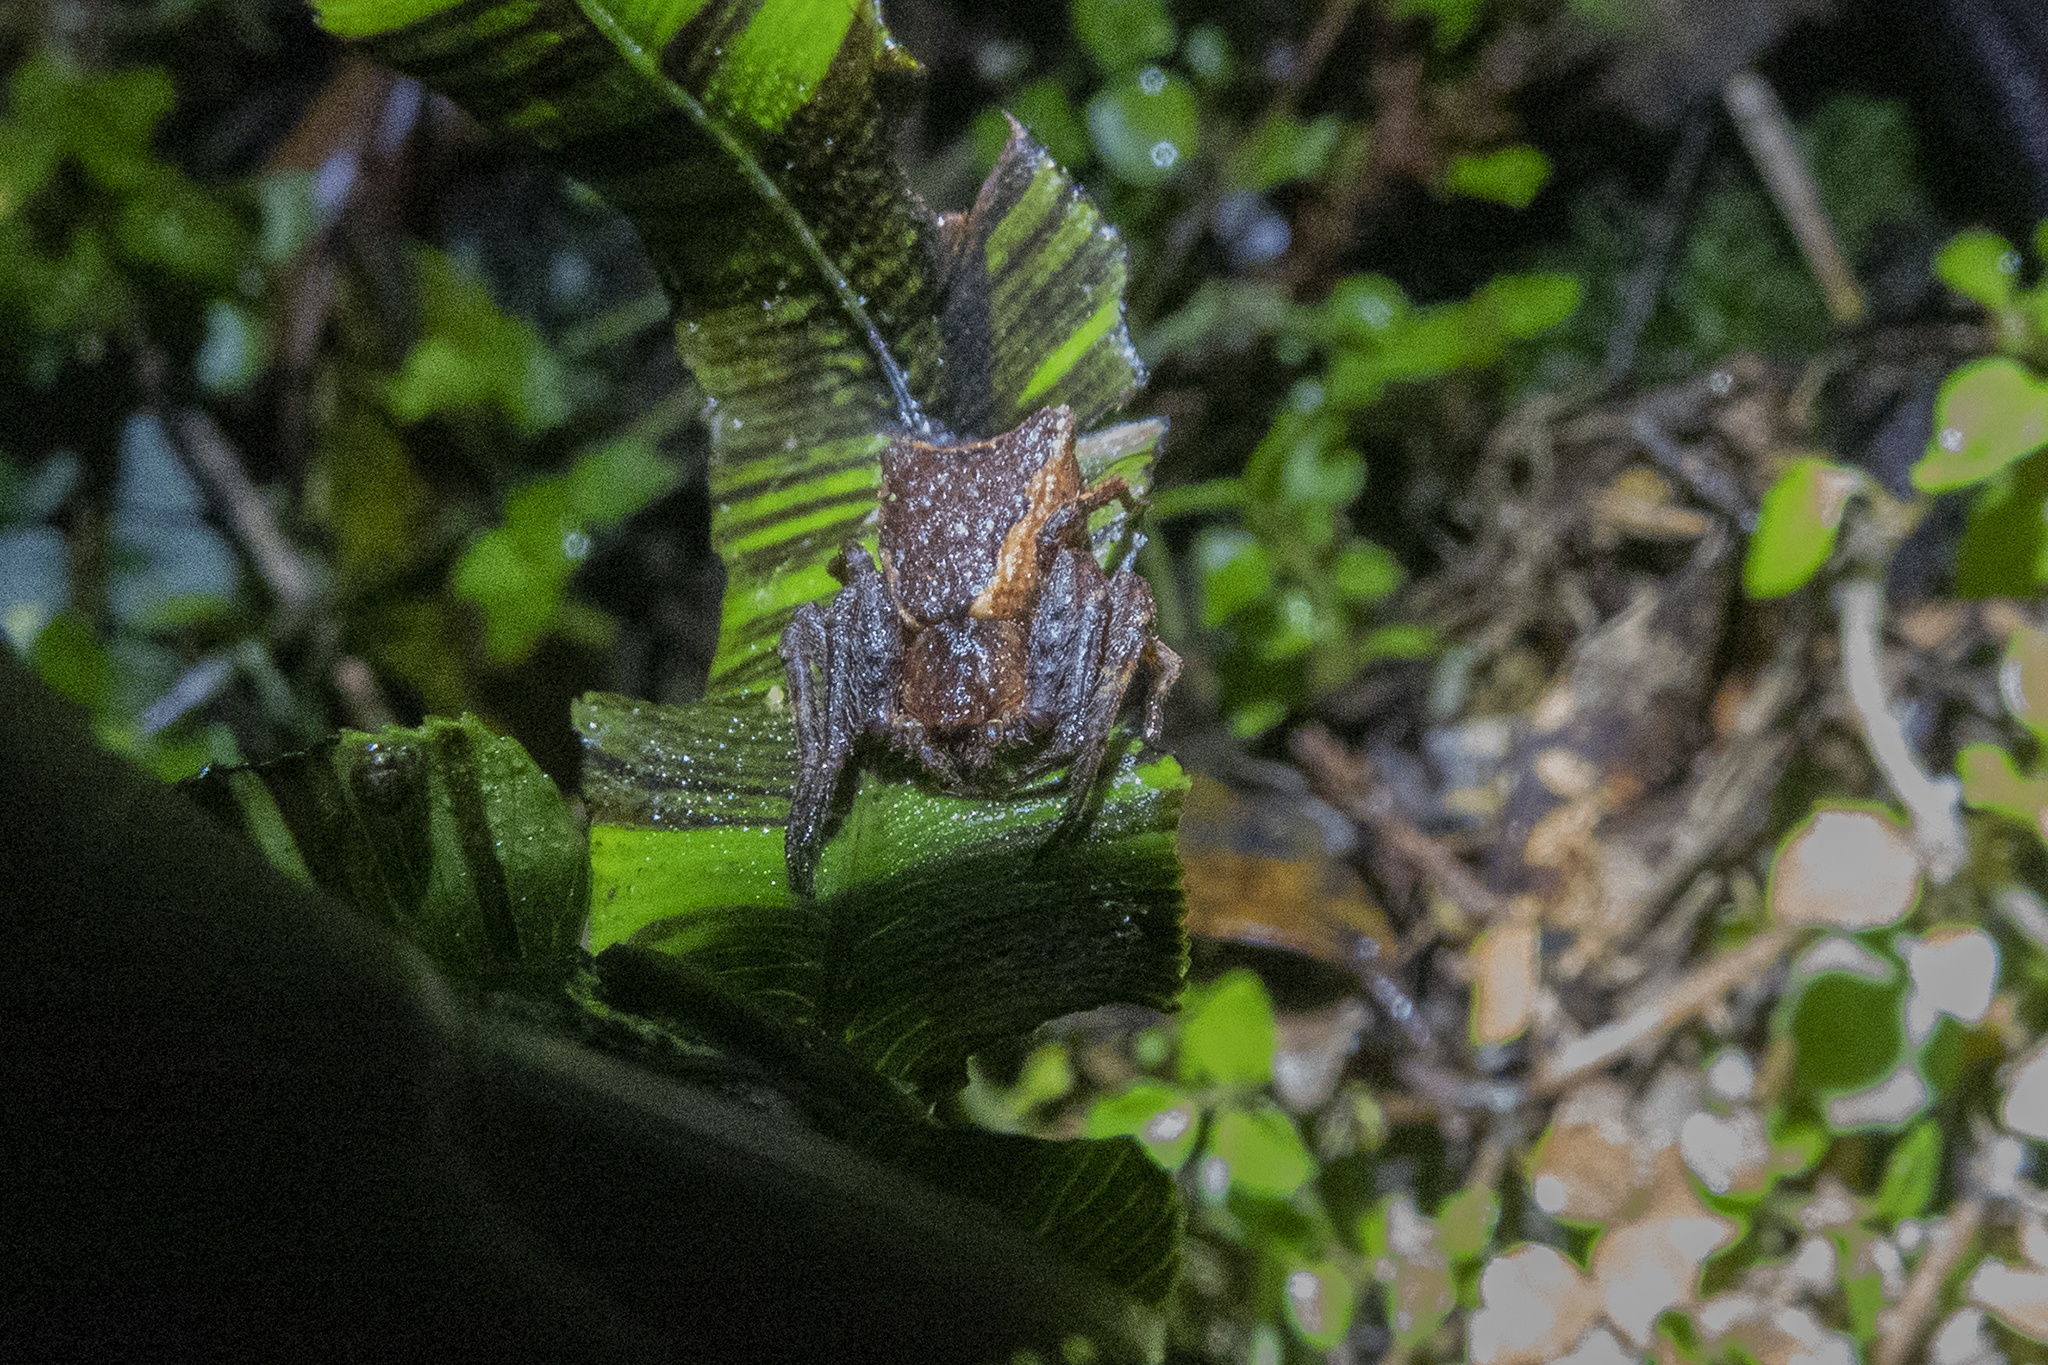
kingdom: Animalia
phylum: Arthropoda
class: Arachnida
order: Araneae
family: Thomisidae
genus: Sidymella
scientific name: Sidymella angularis
